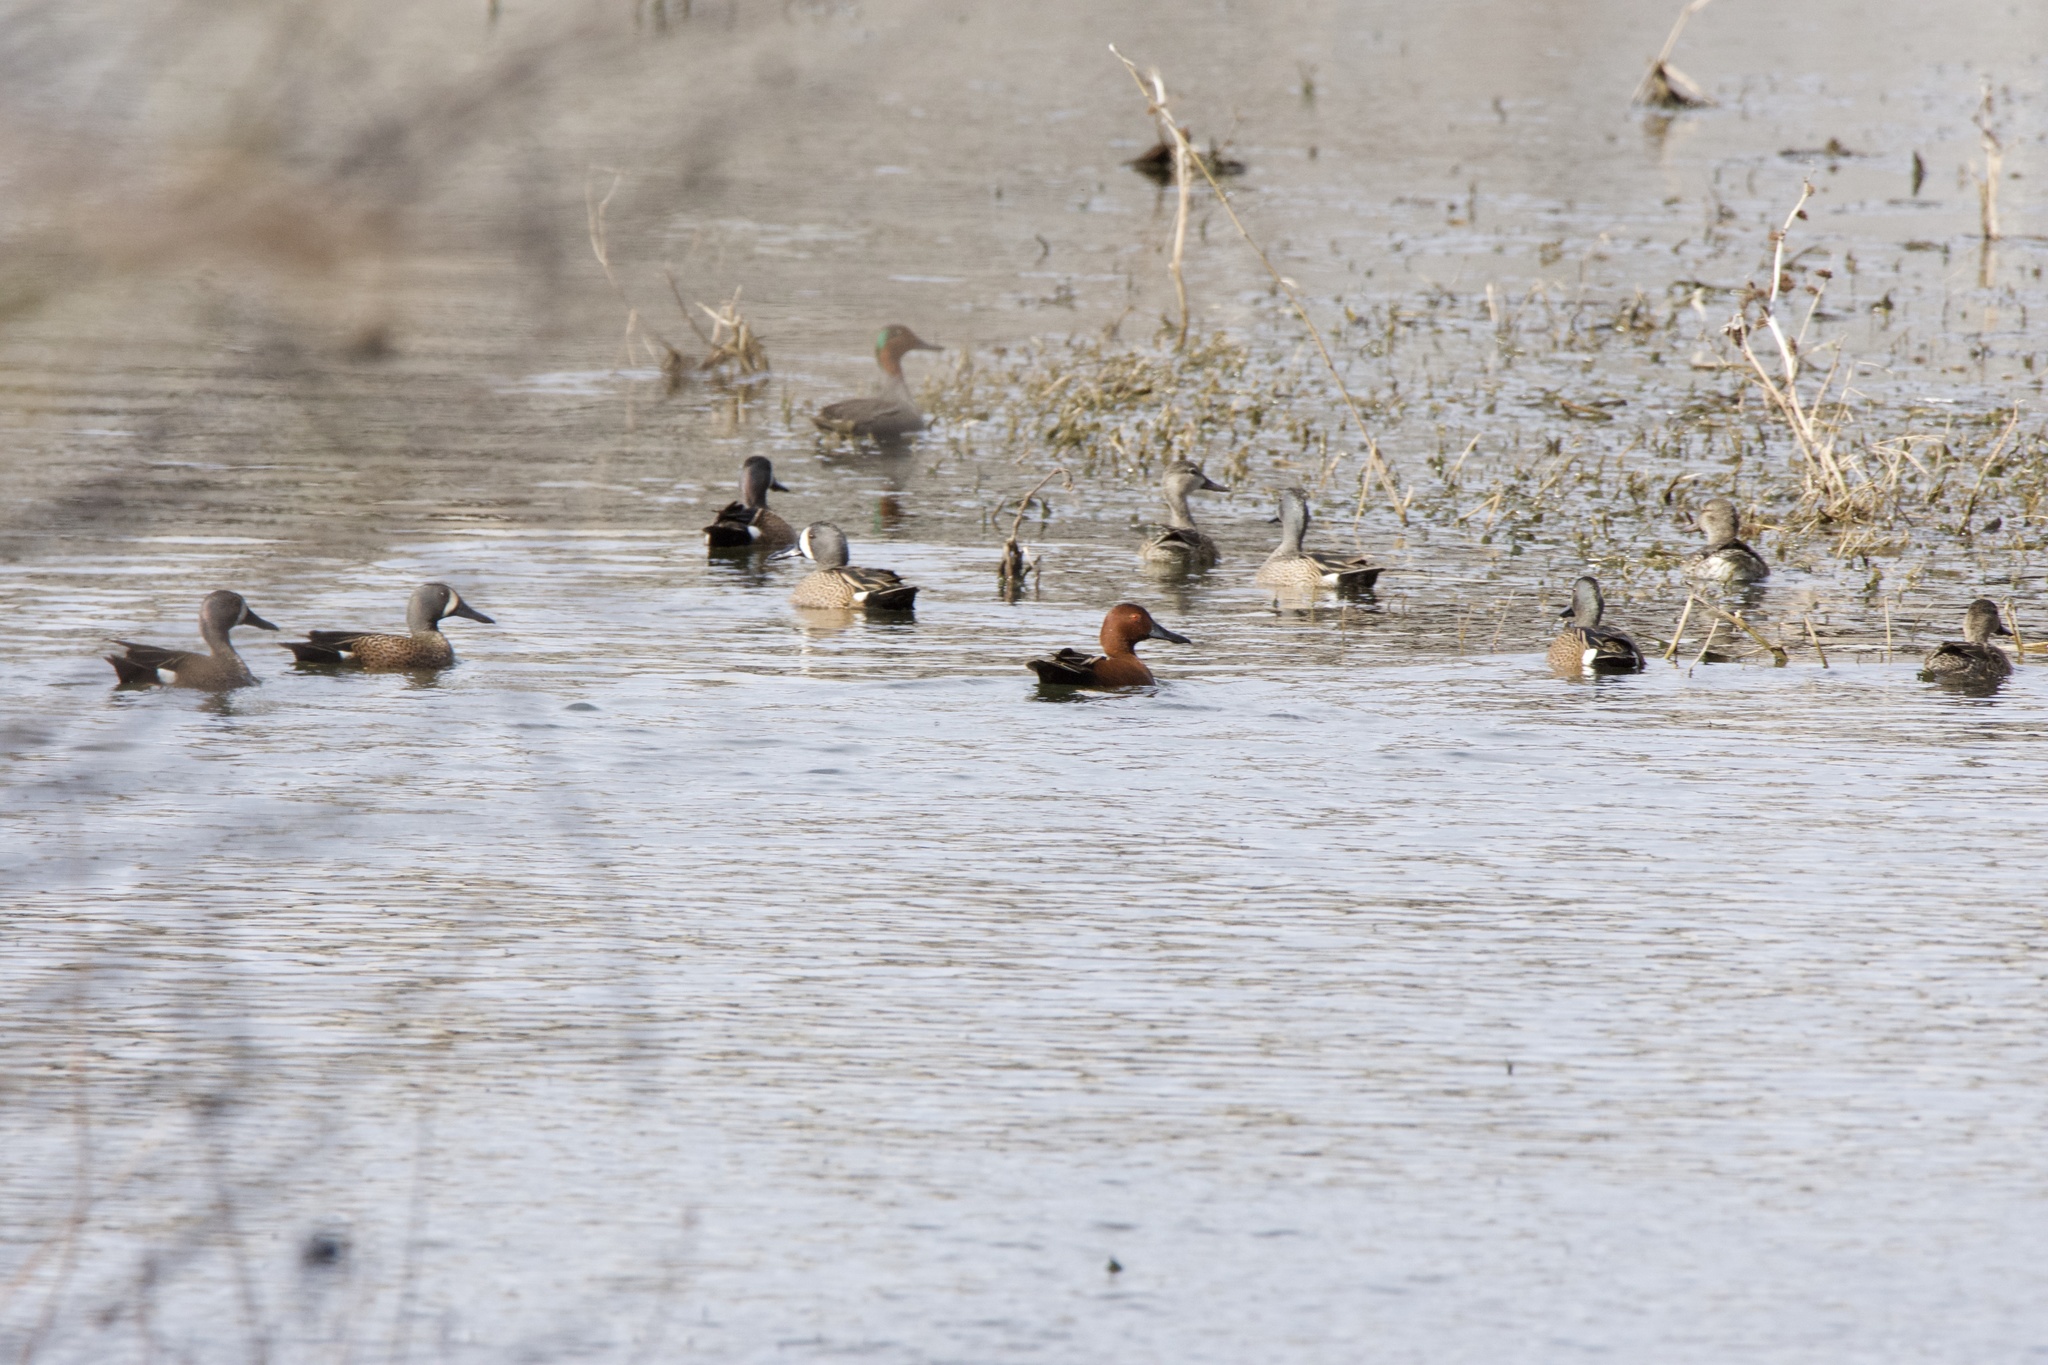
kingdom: Animalia
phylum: Chordata
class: Aves
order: Anseriformes
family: Anatidae
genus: Spatula
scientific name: Spatula cyanoptera
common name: Cinnamon teal
